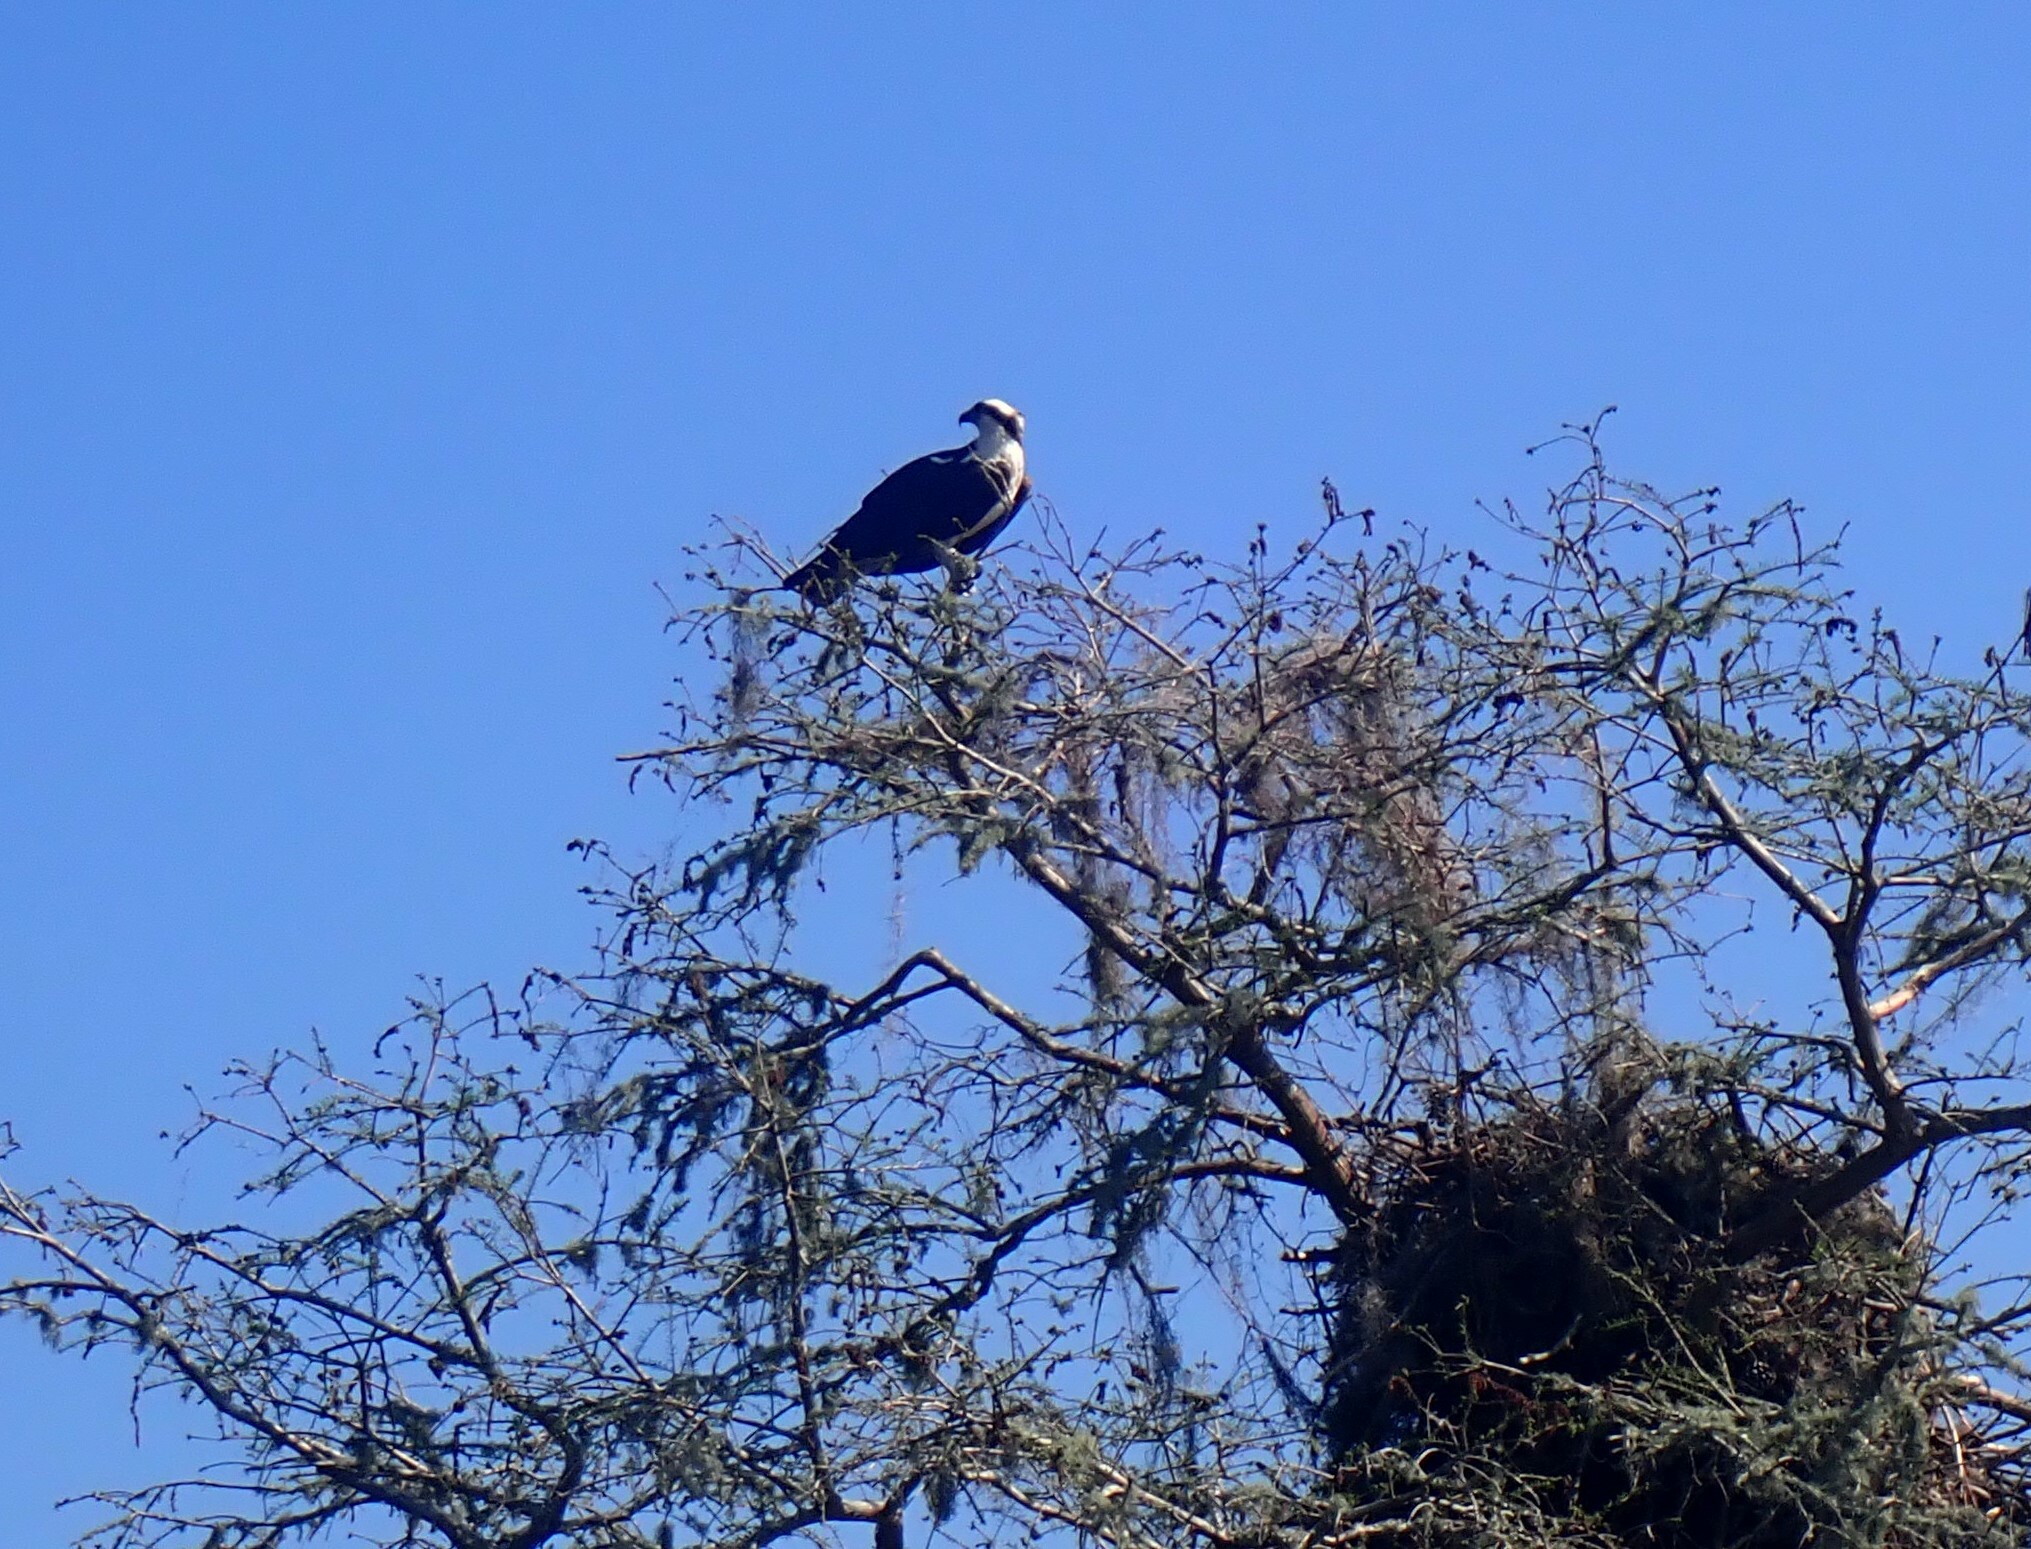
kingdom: Animalia
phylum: Chordata
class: Aves
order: Accipitriformes
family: Pandionidae
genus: Pandion
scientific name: Pandion haliaetus
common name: Osprey
